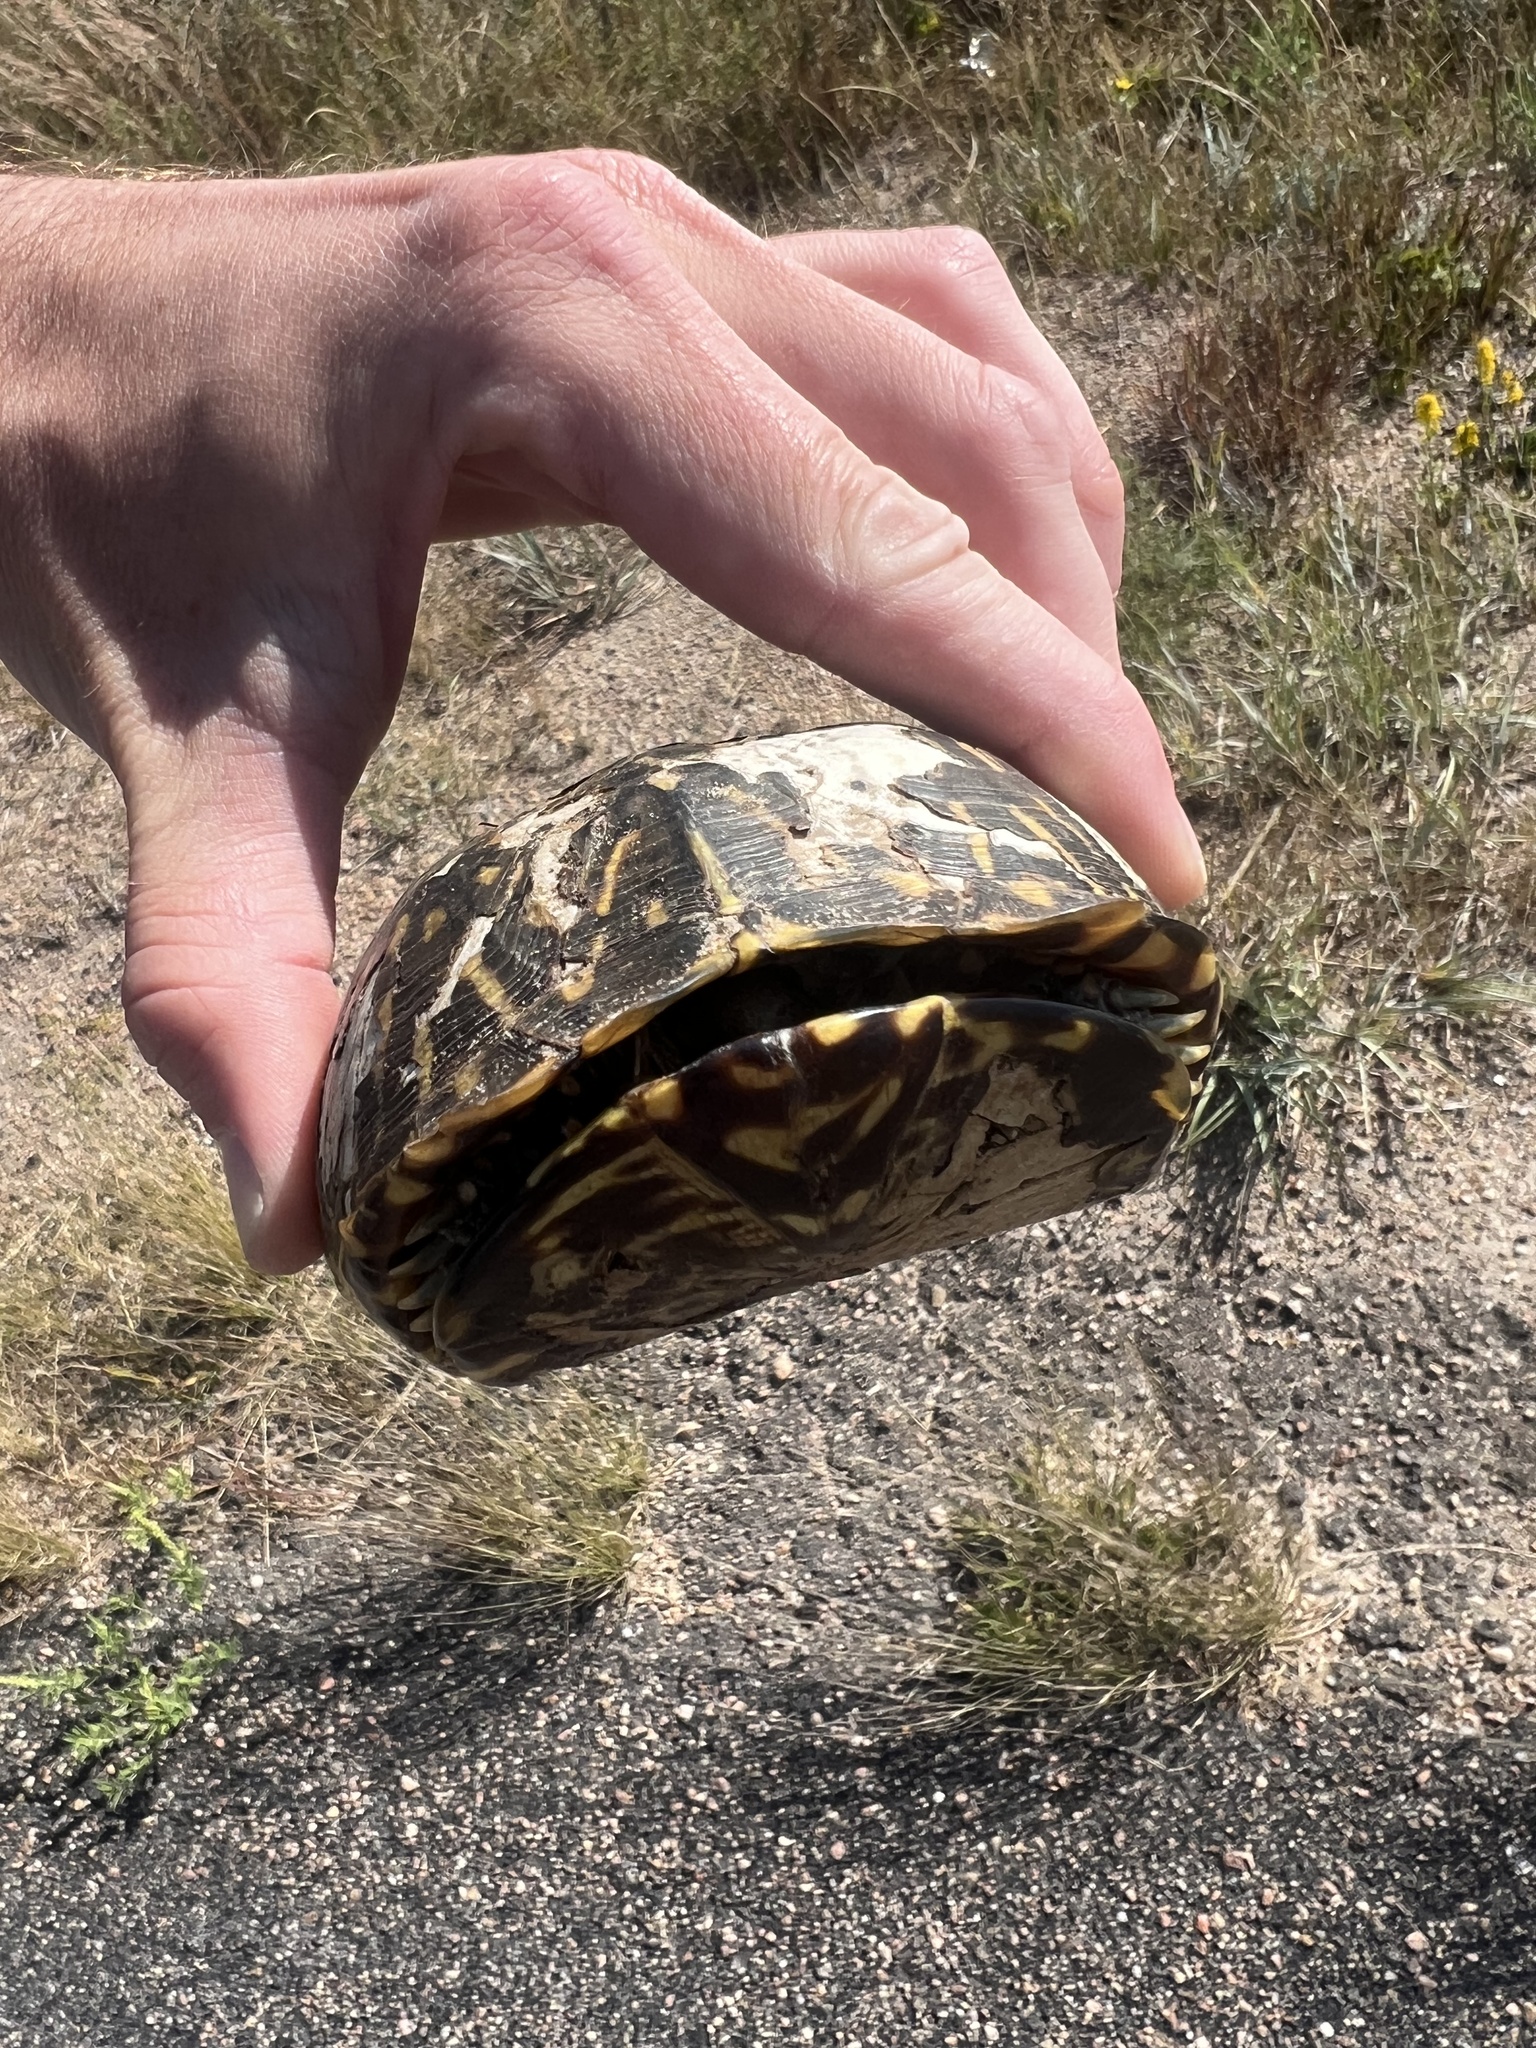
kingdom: Animalia
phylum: Chordata
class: Testudines
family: Emydidae
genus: Terrapene
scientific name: Terrapene ornata
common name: Western box turtle
